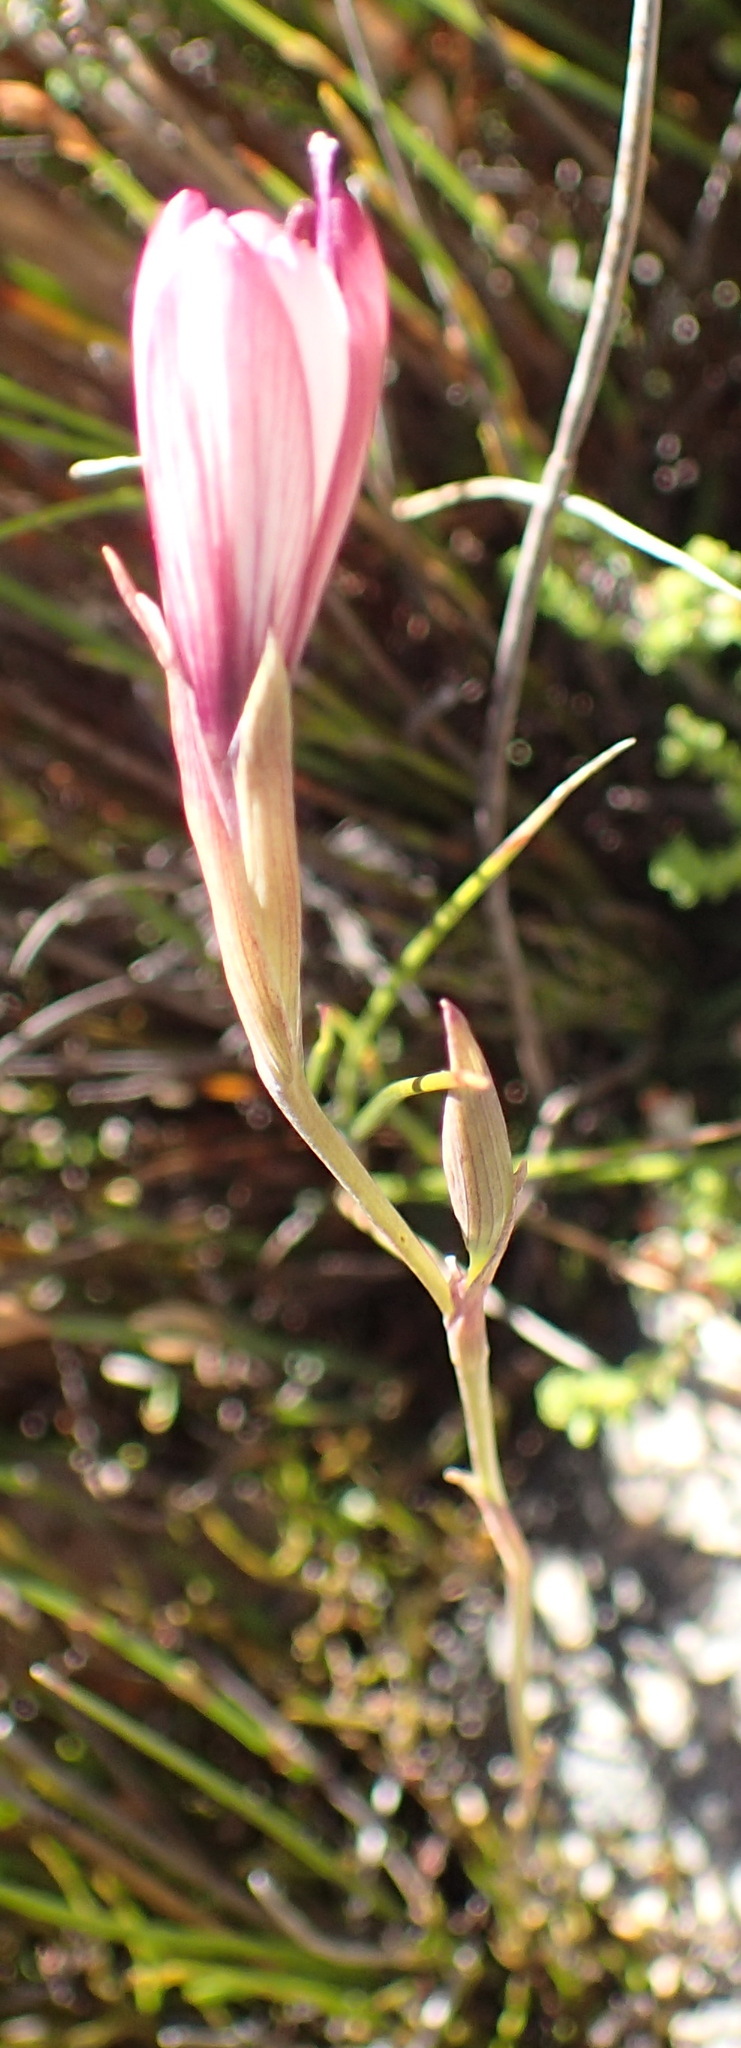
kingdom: Plantae
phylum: Tracheophyta
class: Liliopsida
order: Asparagales
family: Iridaceae
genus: Geissorhiza
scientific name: Geissorhiza fourcadei
